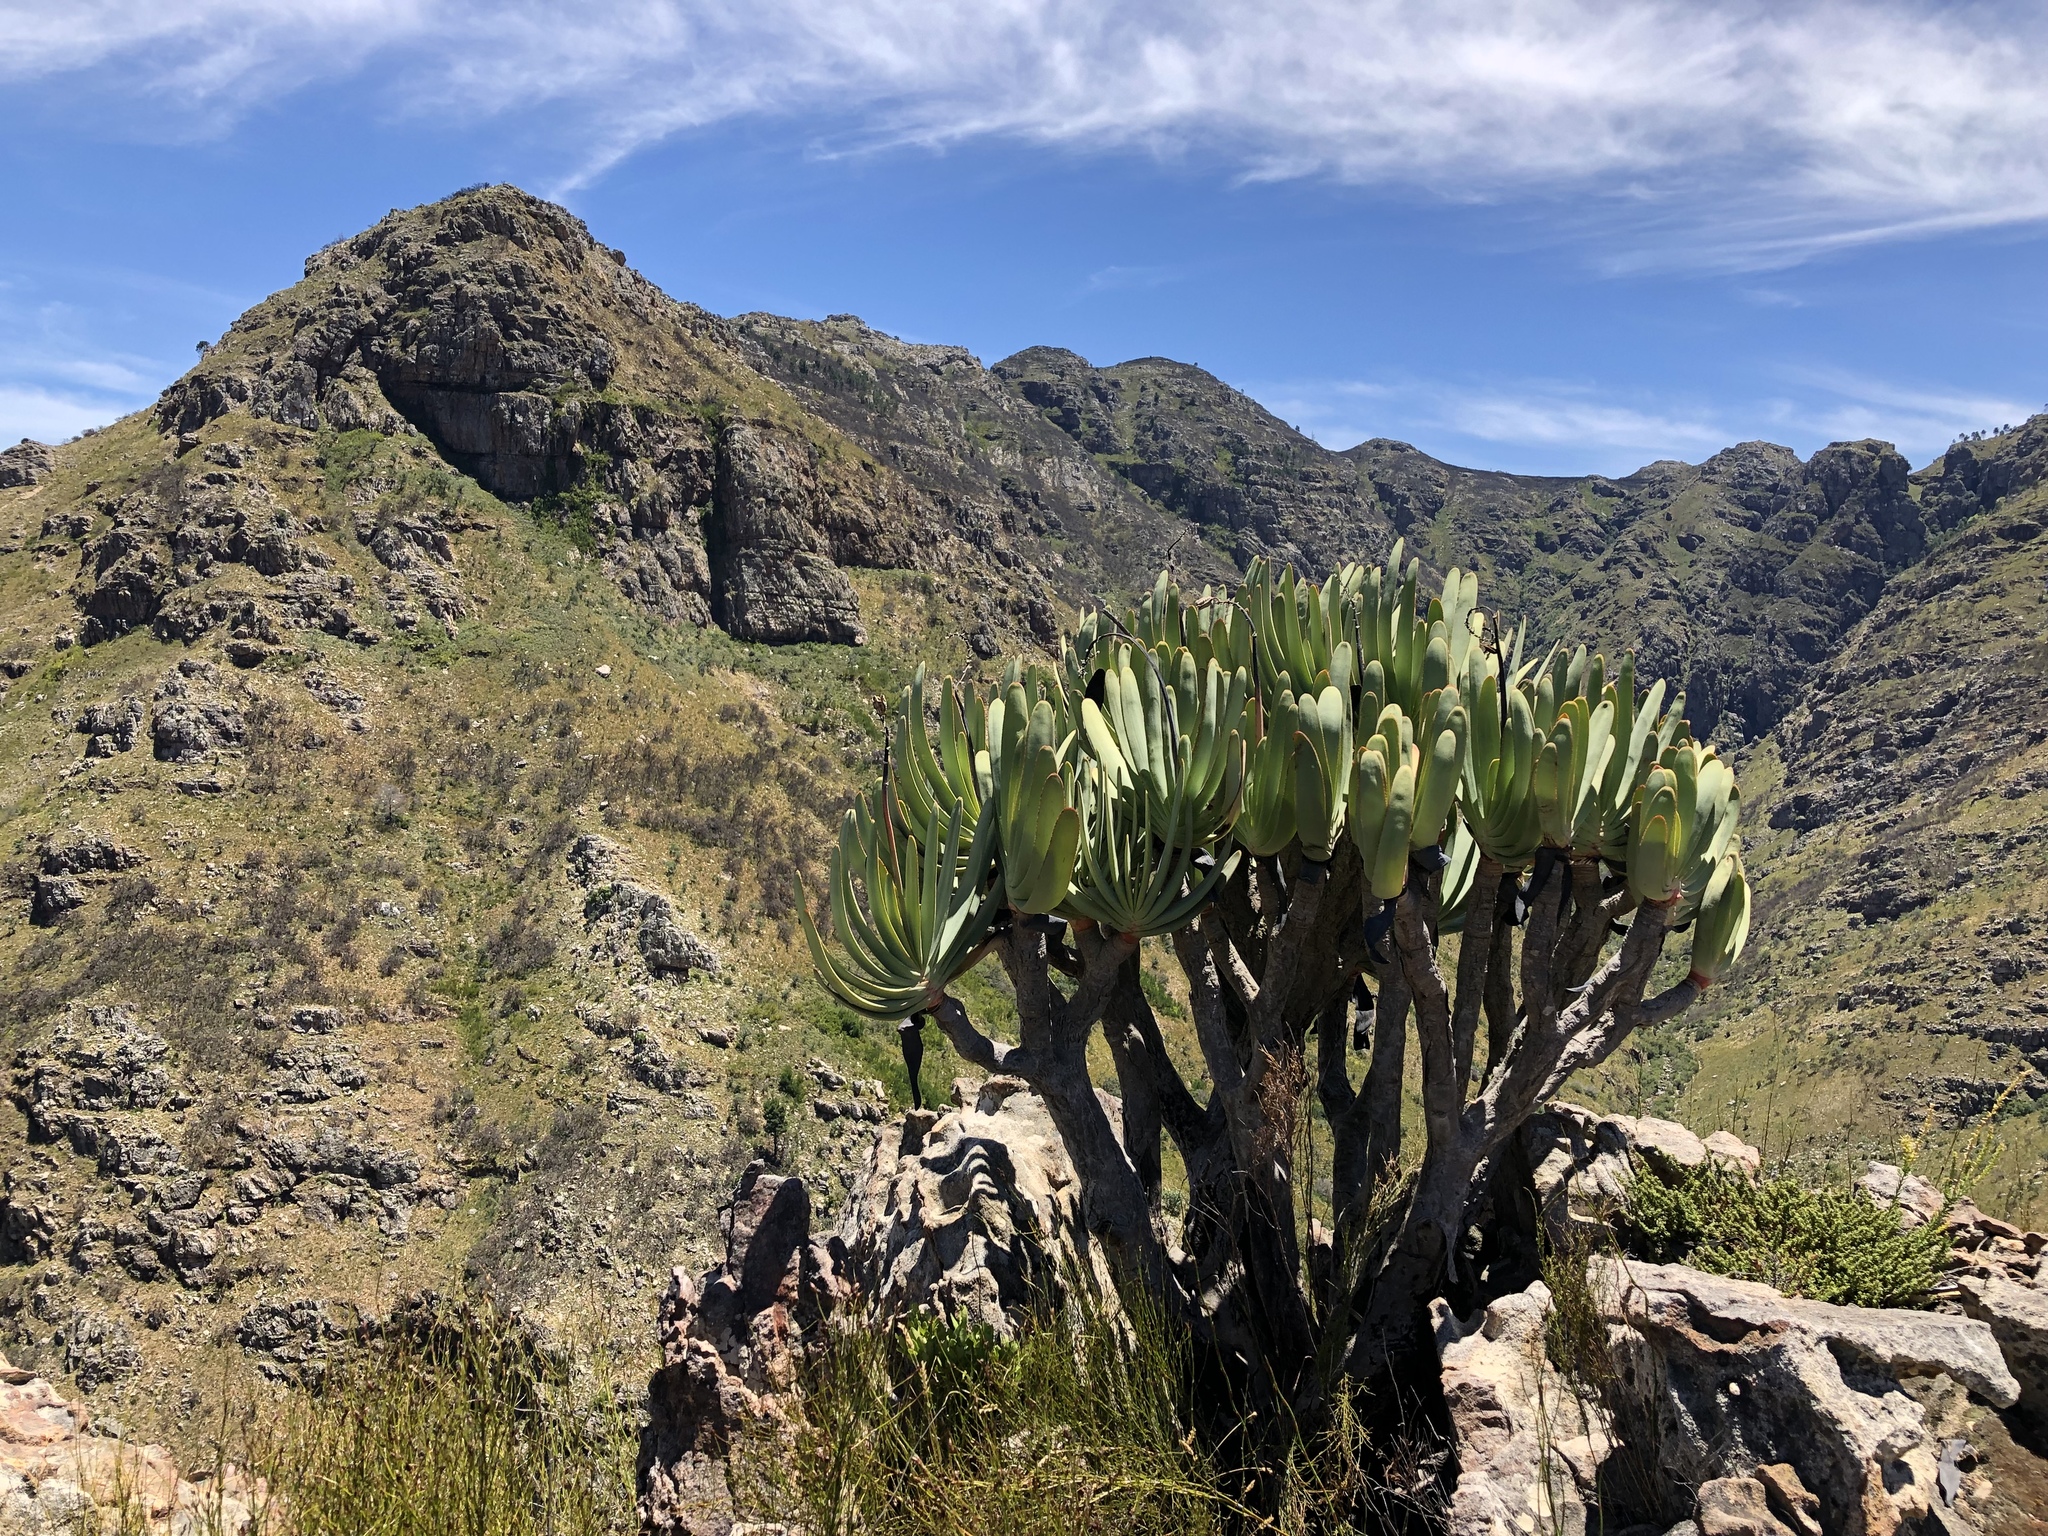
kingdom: Plantae
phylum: Tracheophyta
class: Liliopsida
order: Asparagales
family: Asphodelaceae
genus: Kumara
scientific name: Kumara plicatilis
